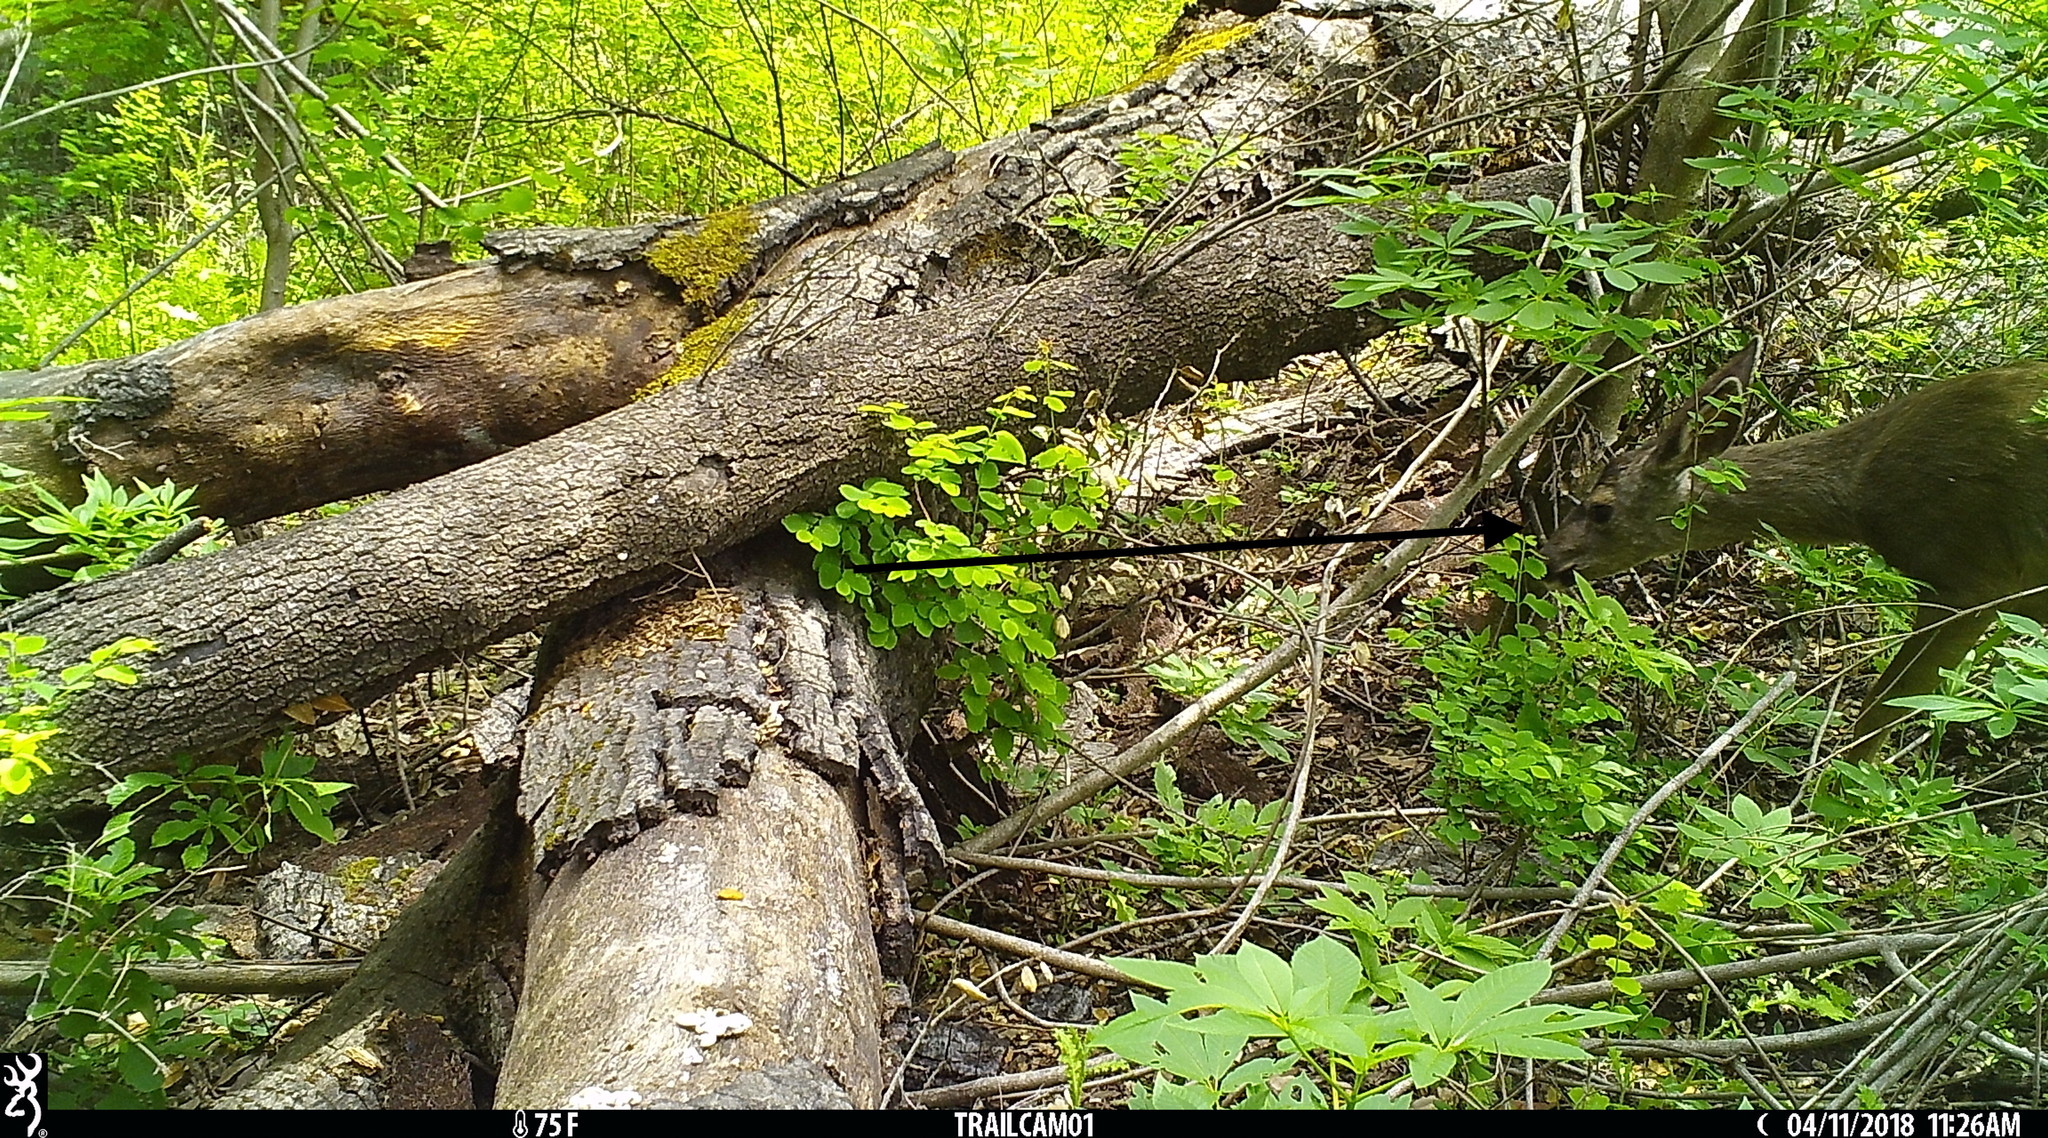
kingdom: Animalia
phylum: Chordata
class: Mammalia
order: Artiodactyla
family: Cervidae
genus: Odocoileus
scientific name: Odocoileus hemionus
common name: Mule deer
